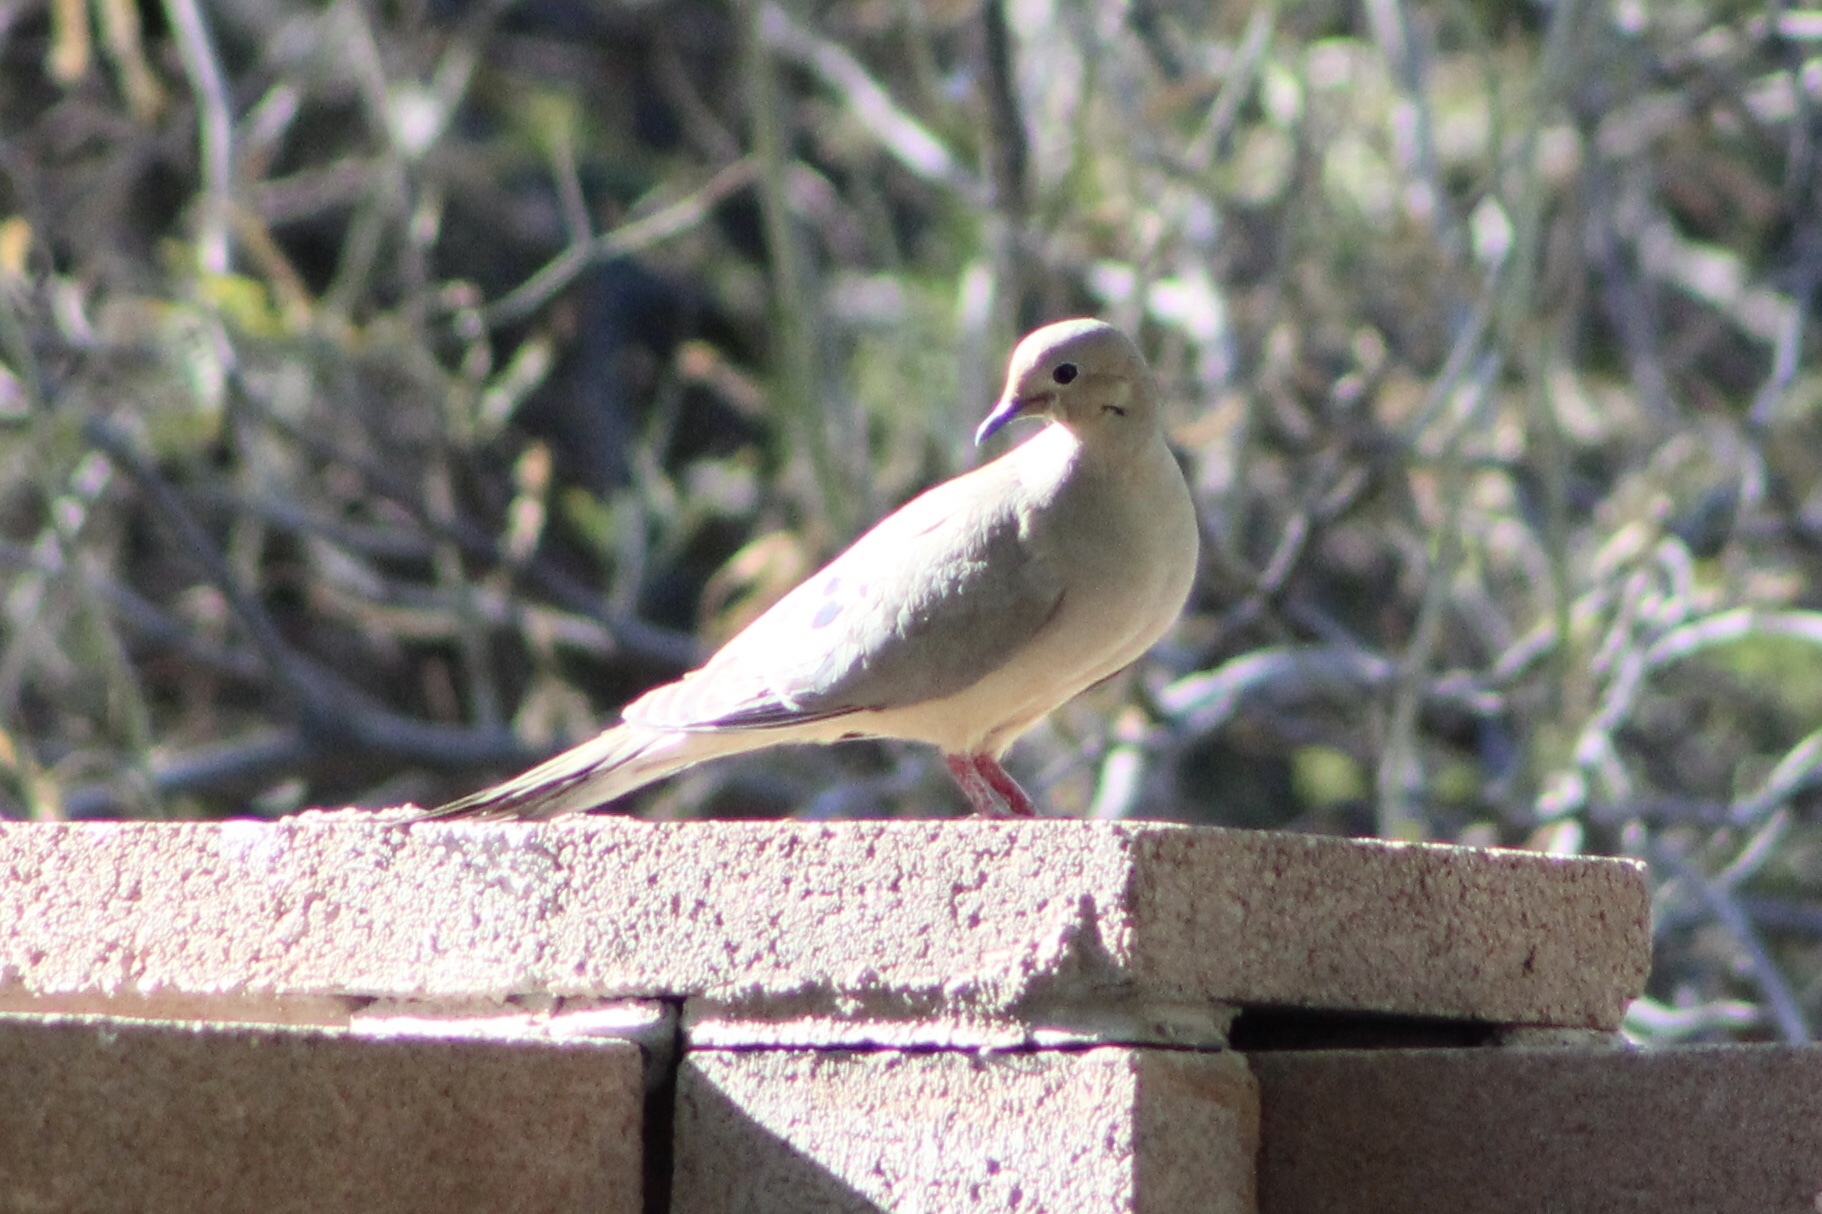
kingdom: Animalia
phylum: Chordata
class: Aves
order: Columbiformes
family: Columbidae
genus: Zenaida
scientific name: Zenaida macroura
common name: Mourning dove
